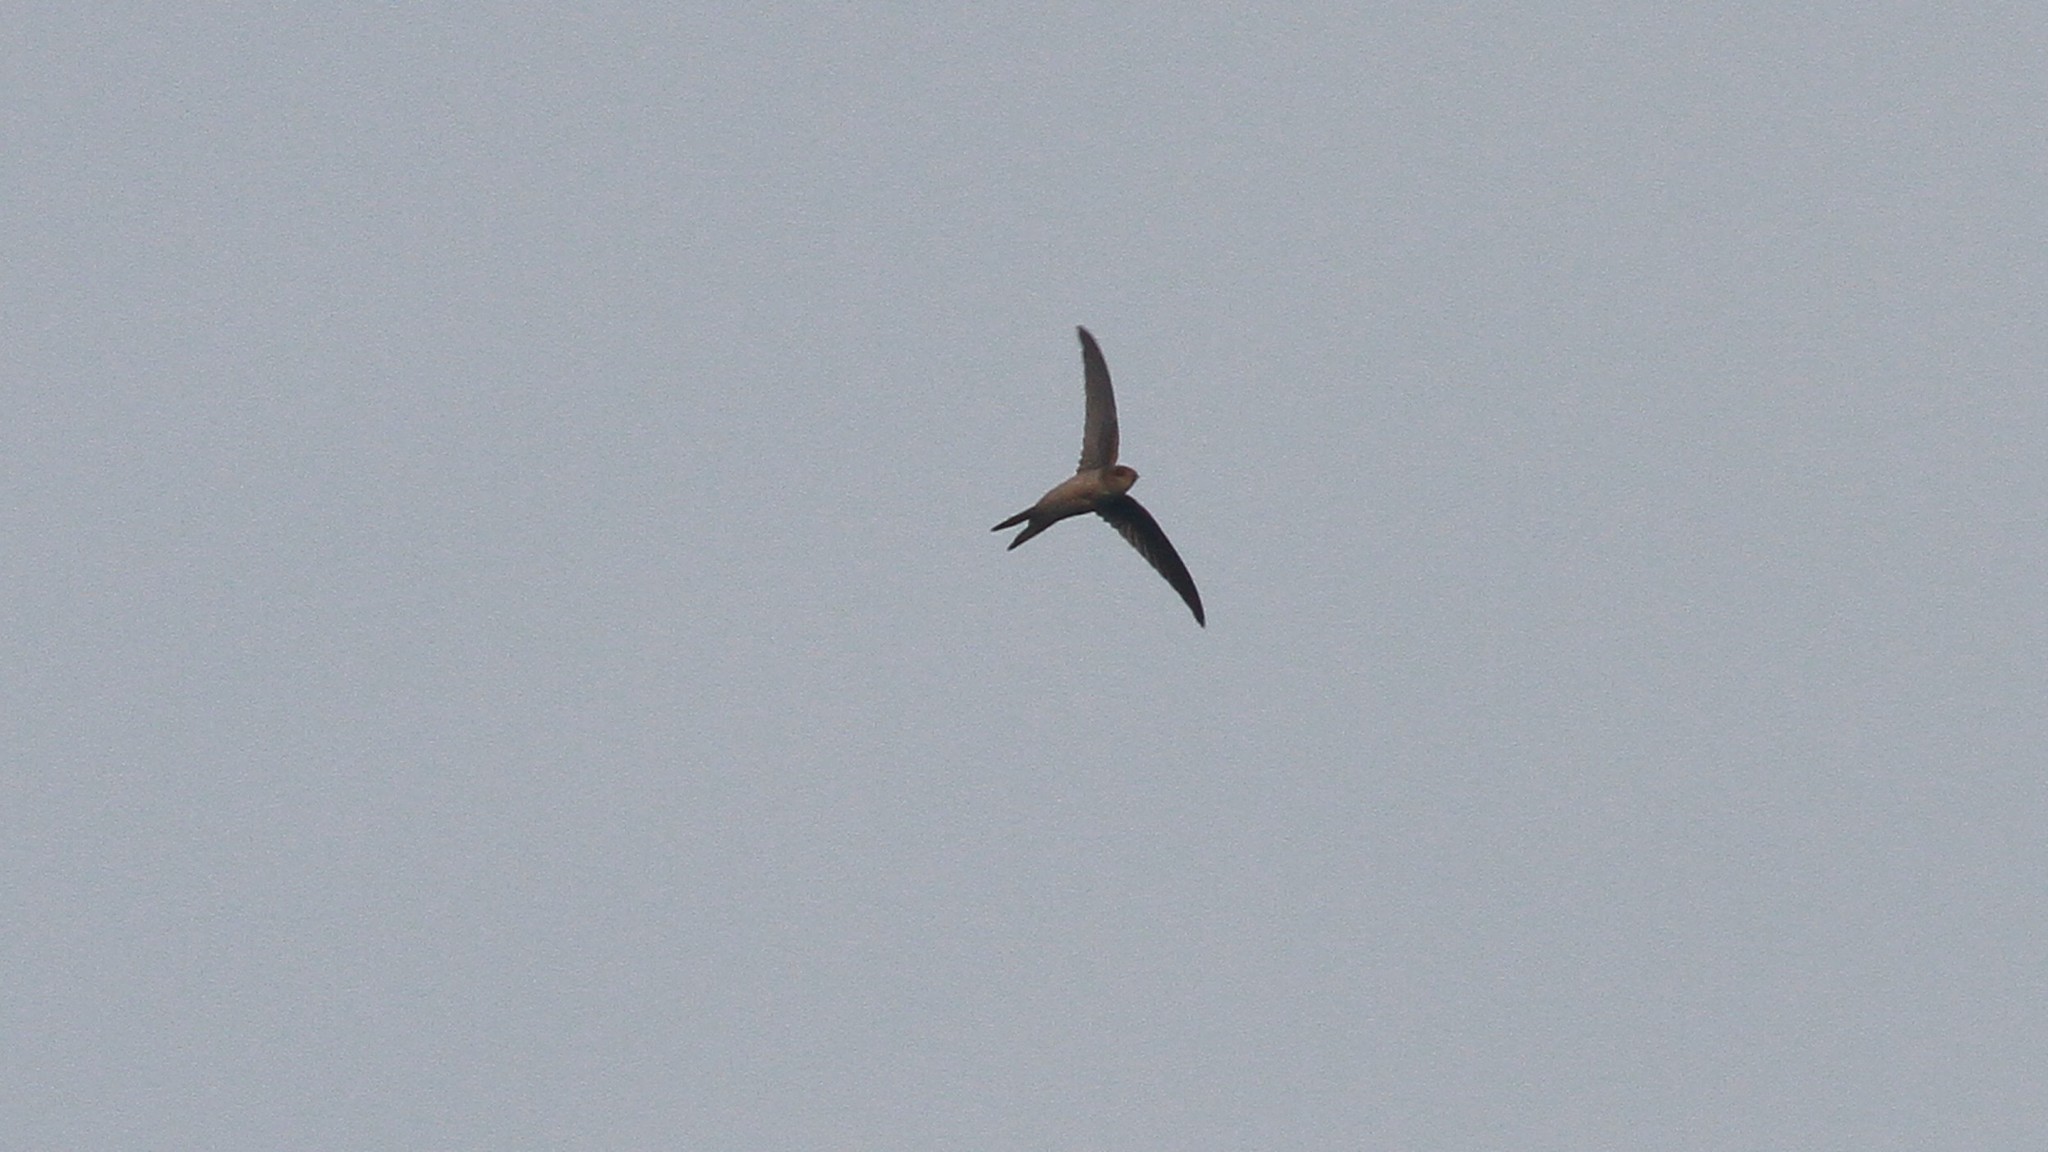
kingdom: Animalia
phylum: Chordata
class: Aves
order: Apodiformes
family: Apodidae
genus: Cypsiurus
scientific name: Cypsiurus balasiensis
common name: Asian palm swift
